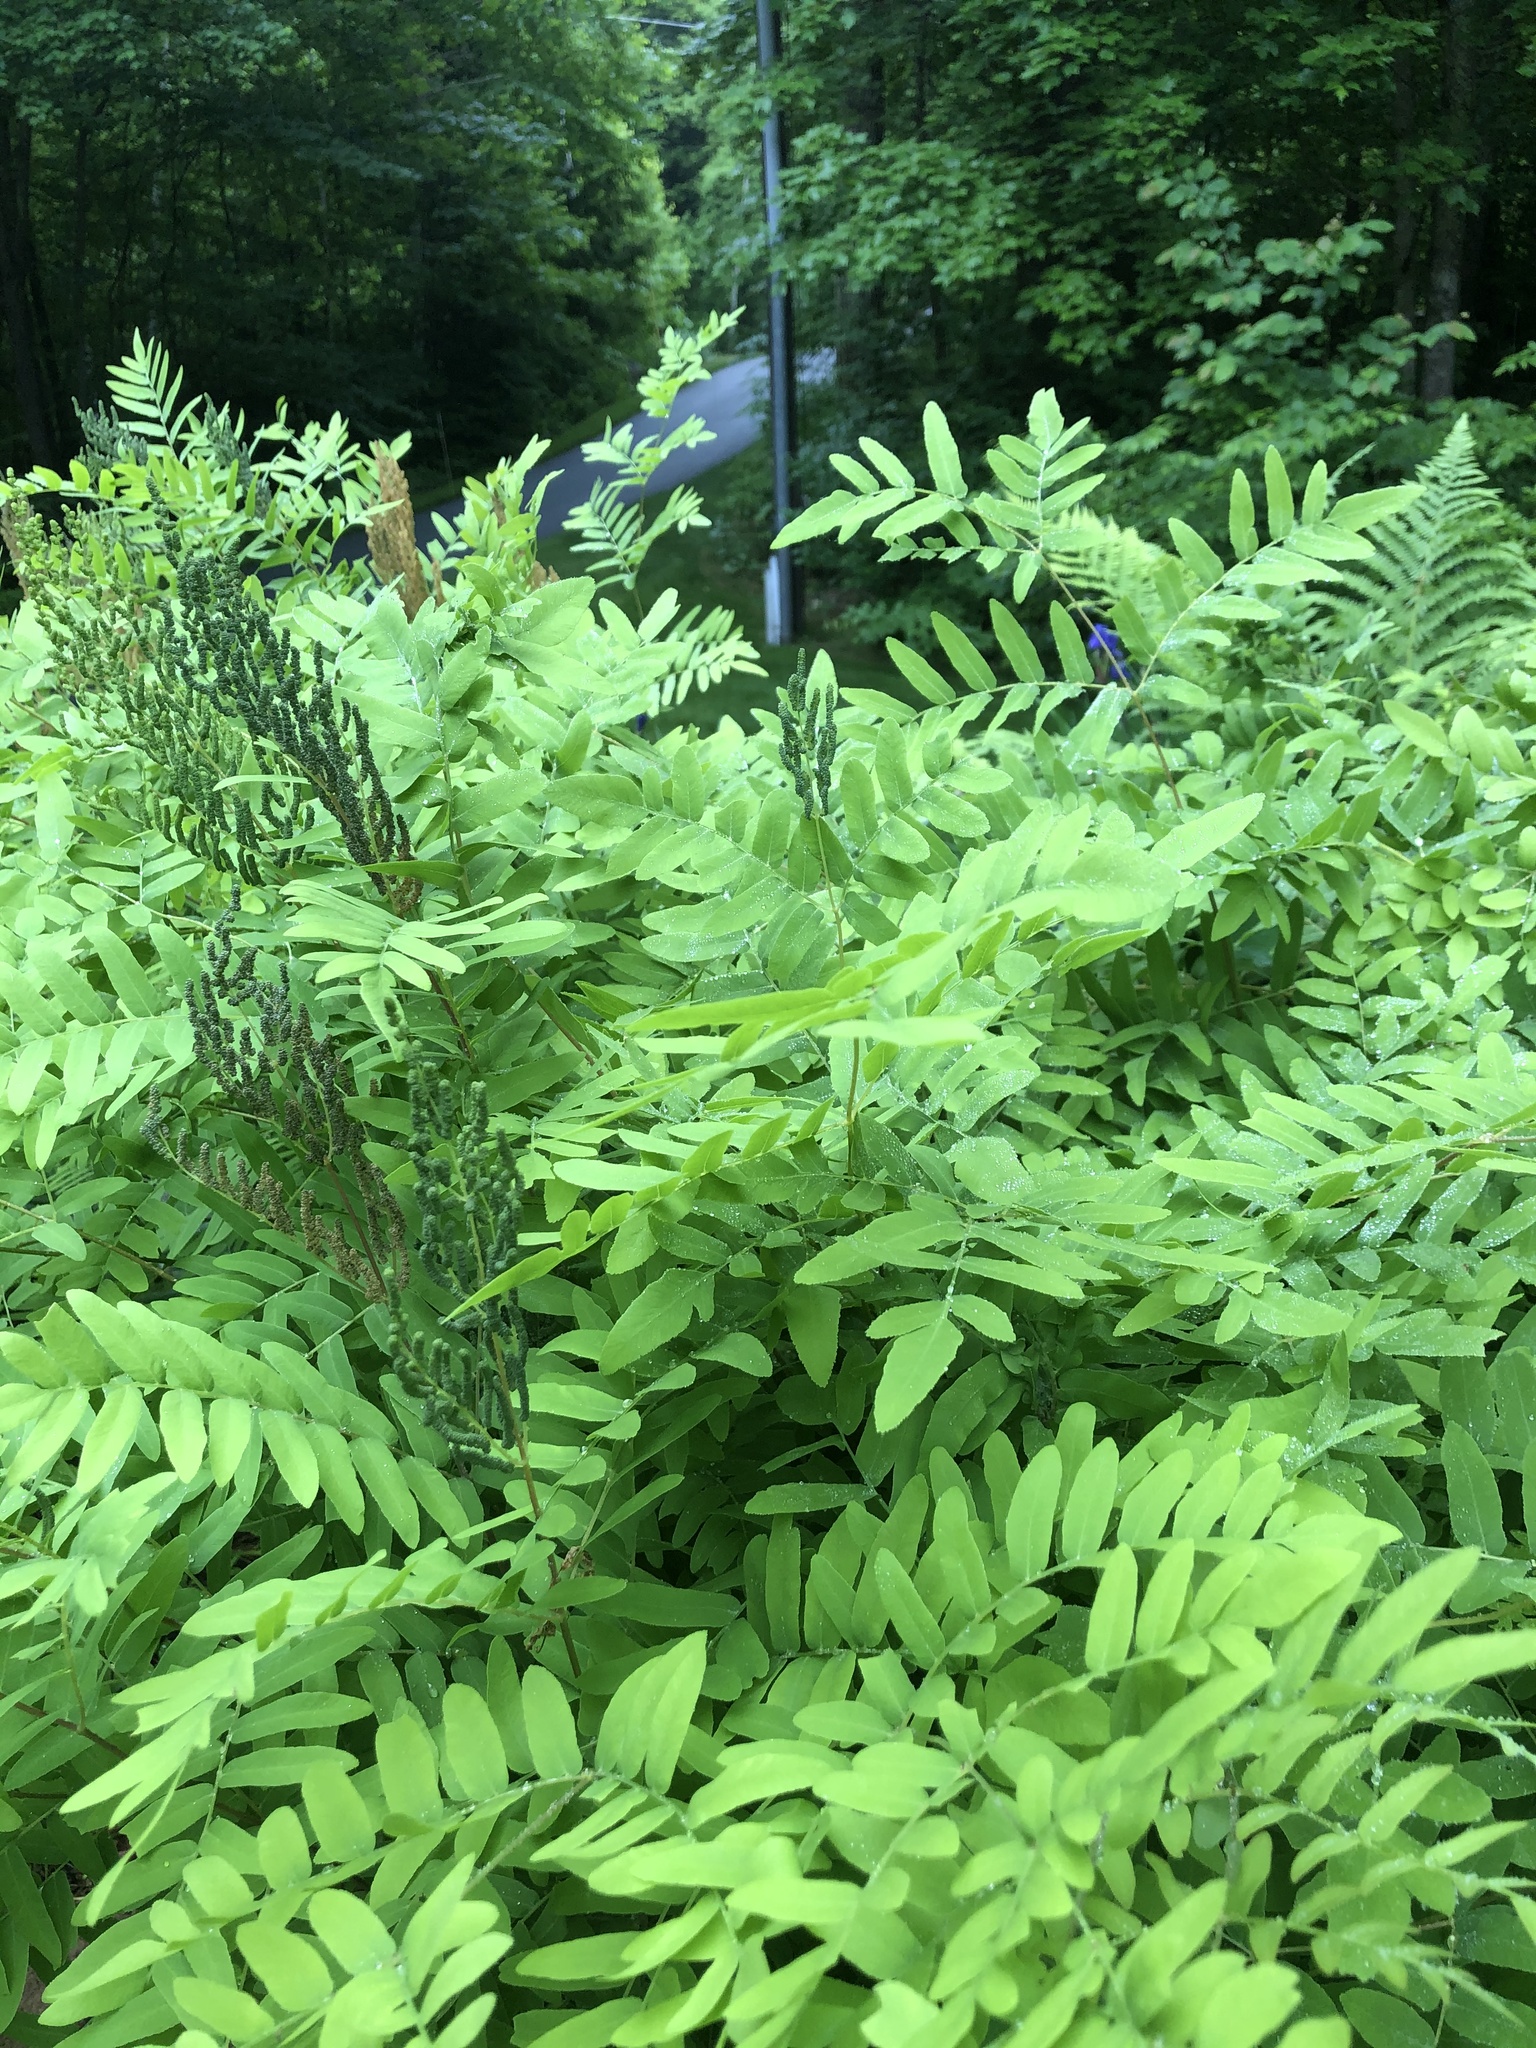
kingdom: Plantae
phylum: Tracheophyta
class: Polypodiopsida
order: Osmundales
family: Osmundaceae
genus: Osmunda
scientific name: Osmunda spectabilis
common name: American royal fern
